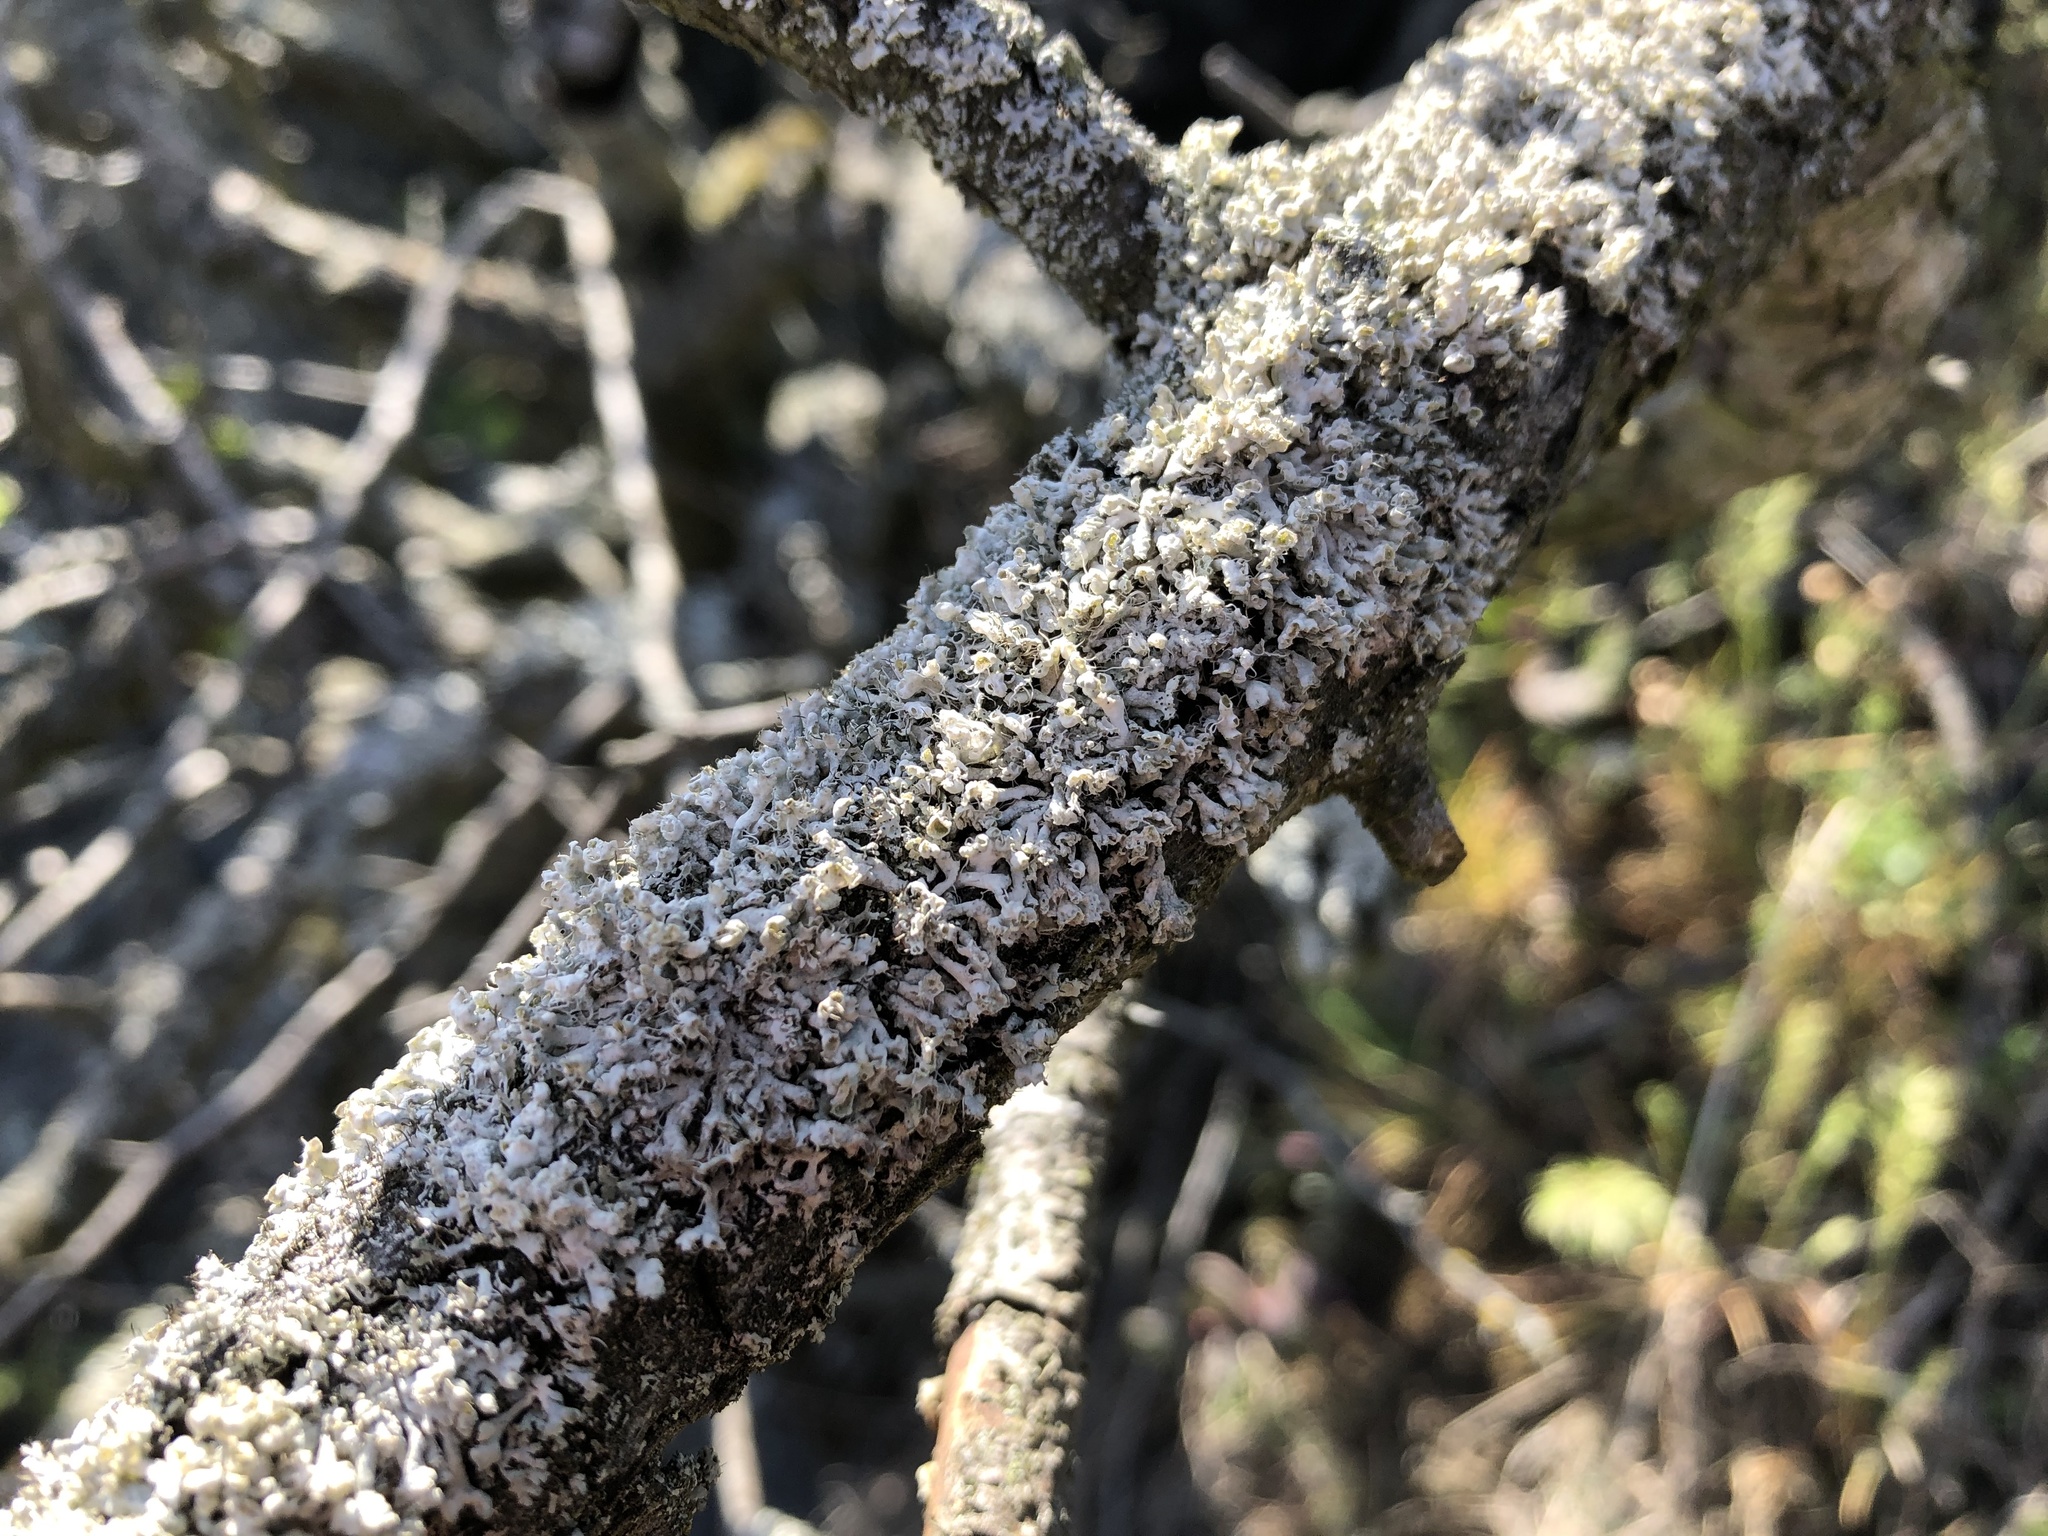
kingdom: Fungi
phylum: Ascomycota
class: Lecanoromycetes
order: Caliciales
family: Physciaceae
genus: Physcia
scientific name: Physcia adscendens
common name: Hooded rosette lichen
